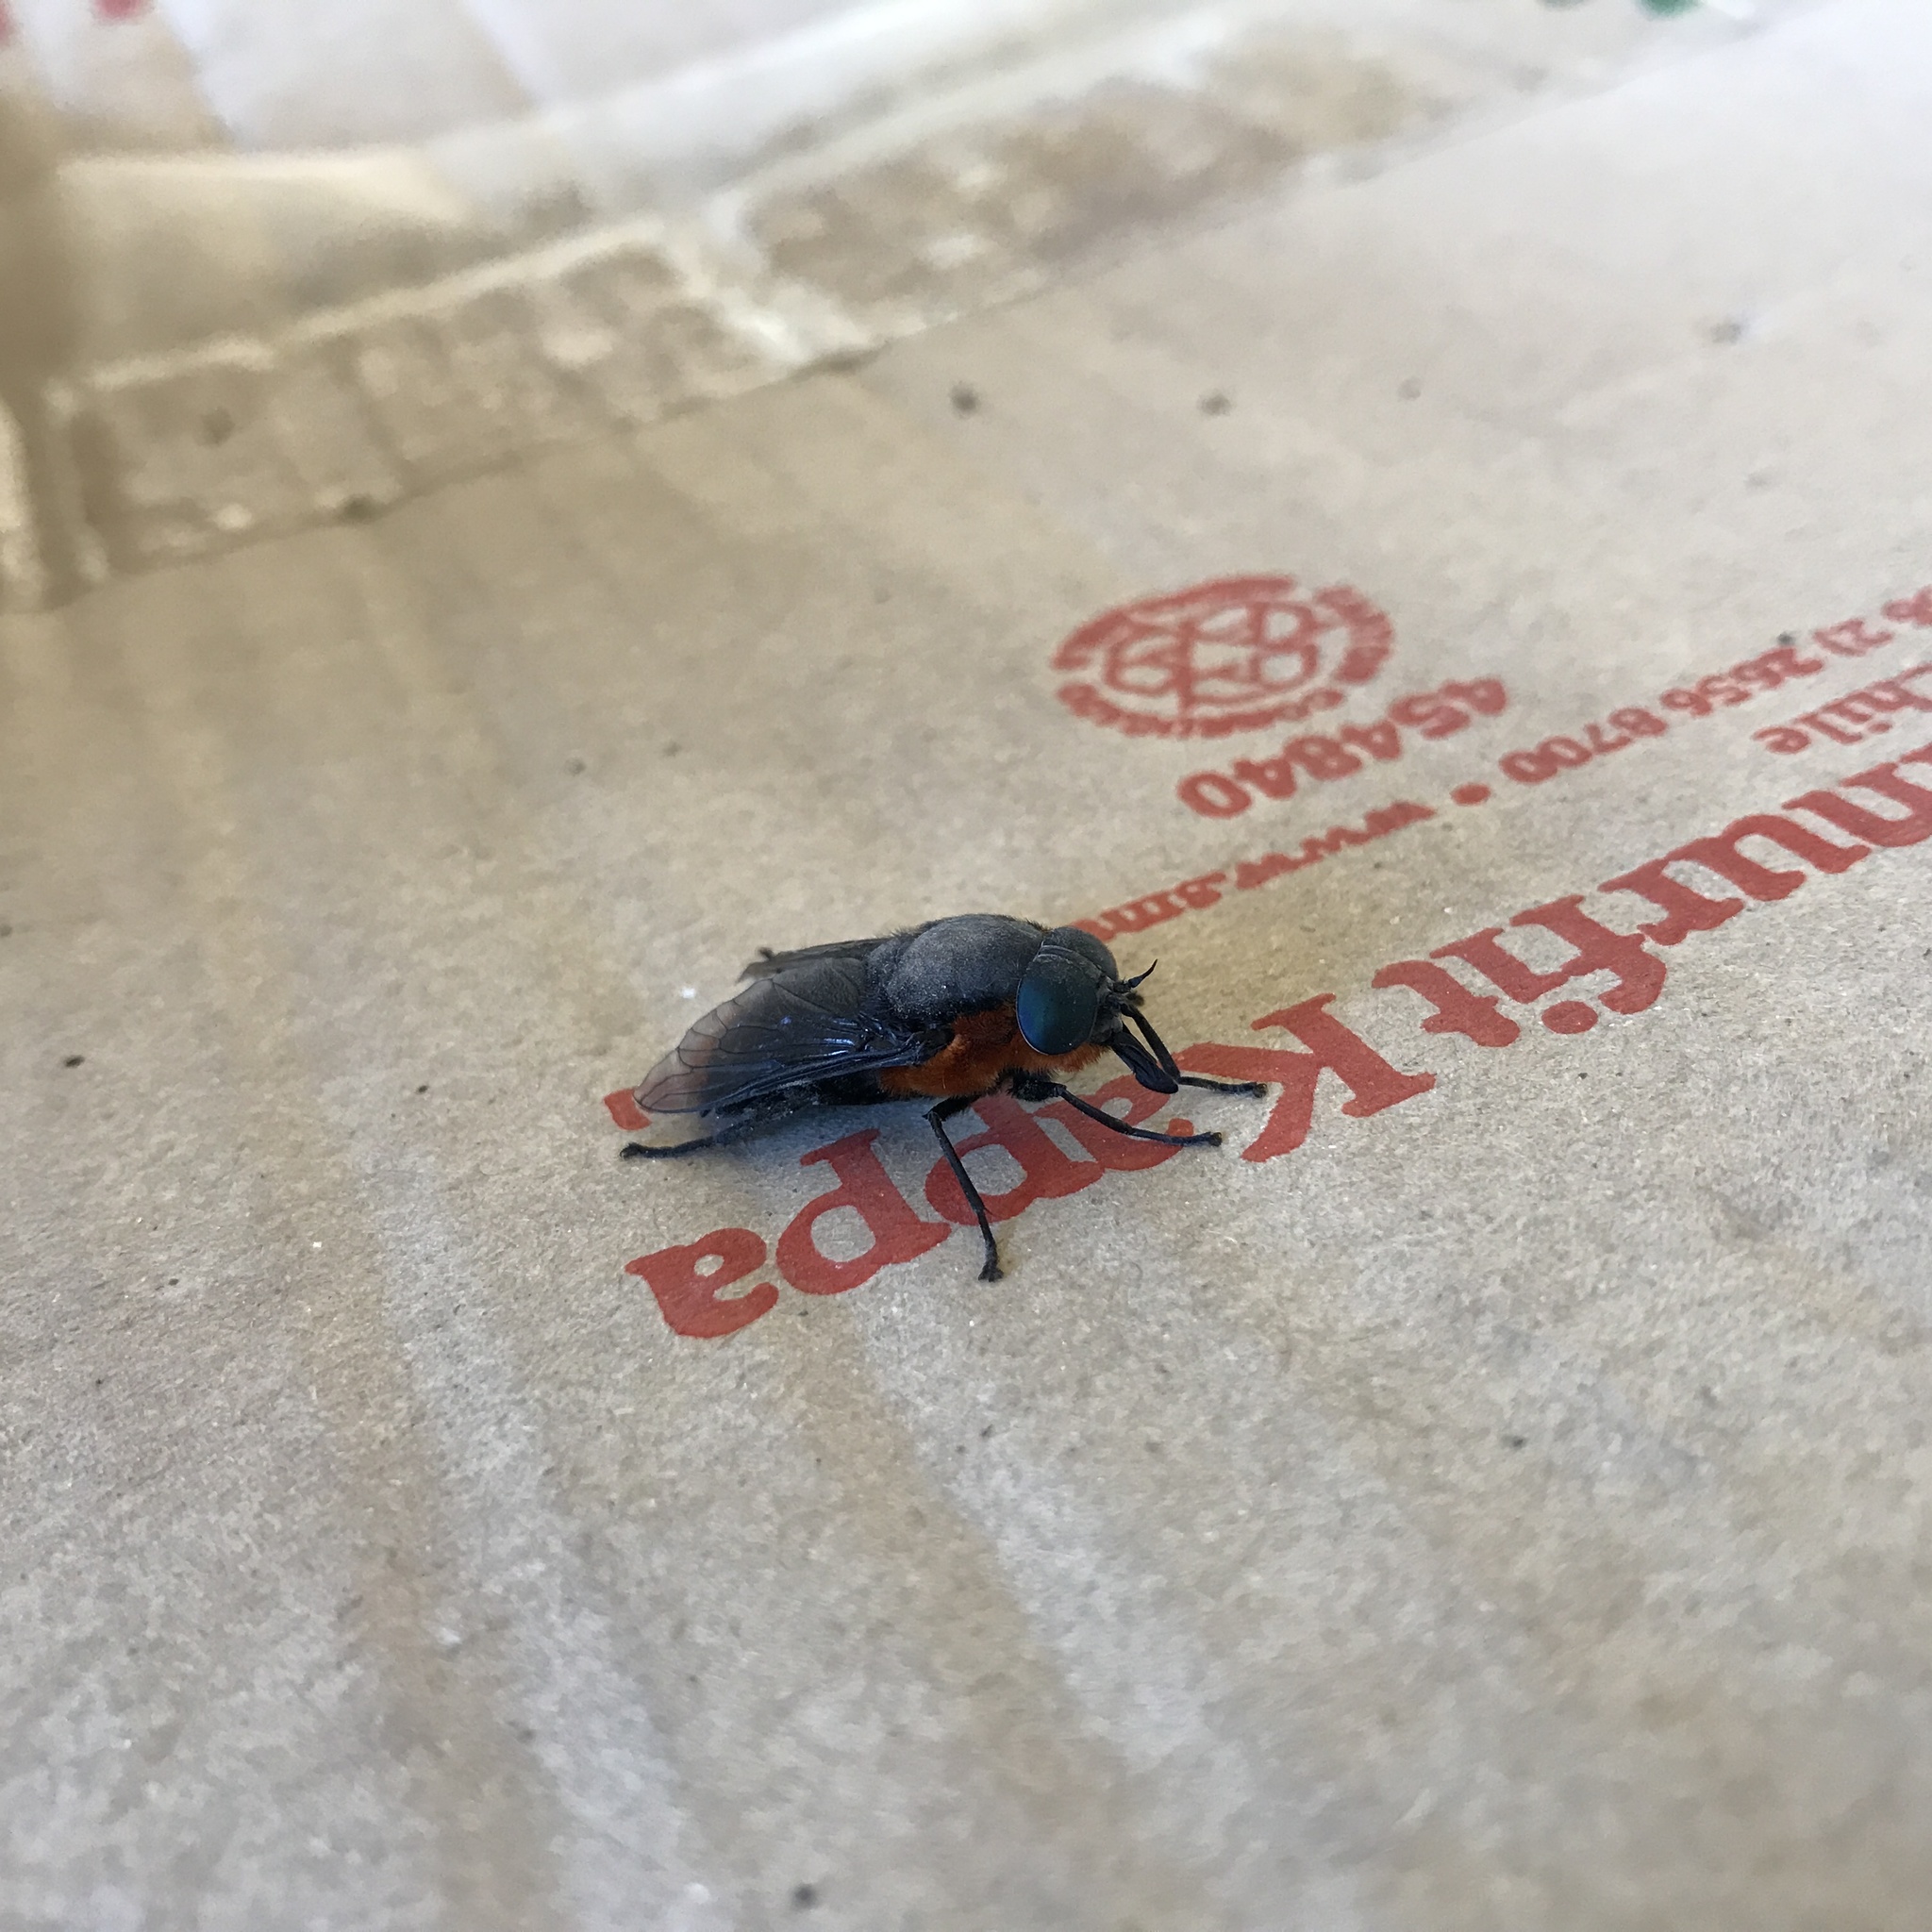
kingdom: Animalia
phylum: Arthropoda
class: Insecta
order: Diptera
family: Tabanidae
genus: Osca
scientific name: Osca lata
